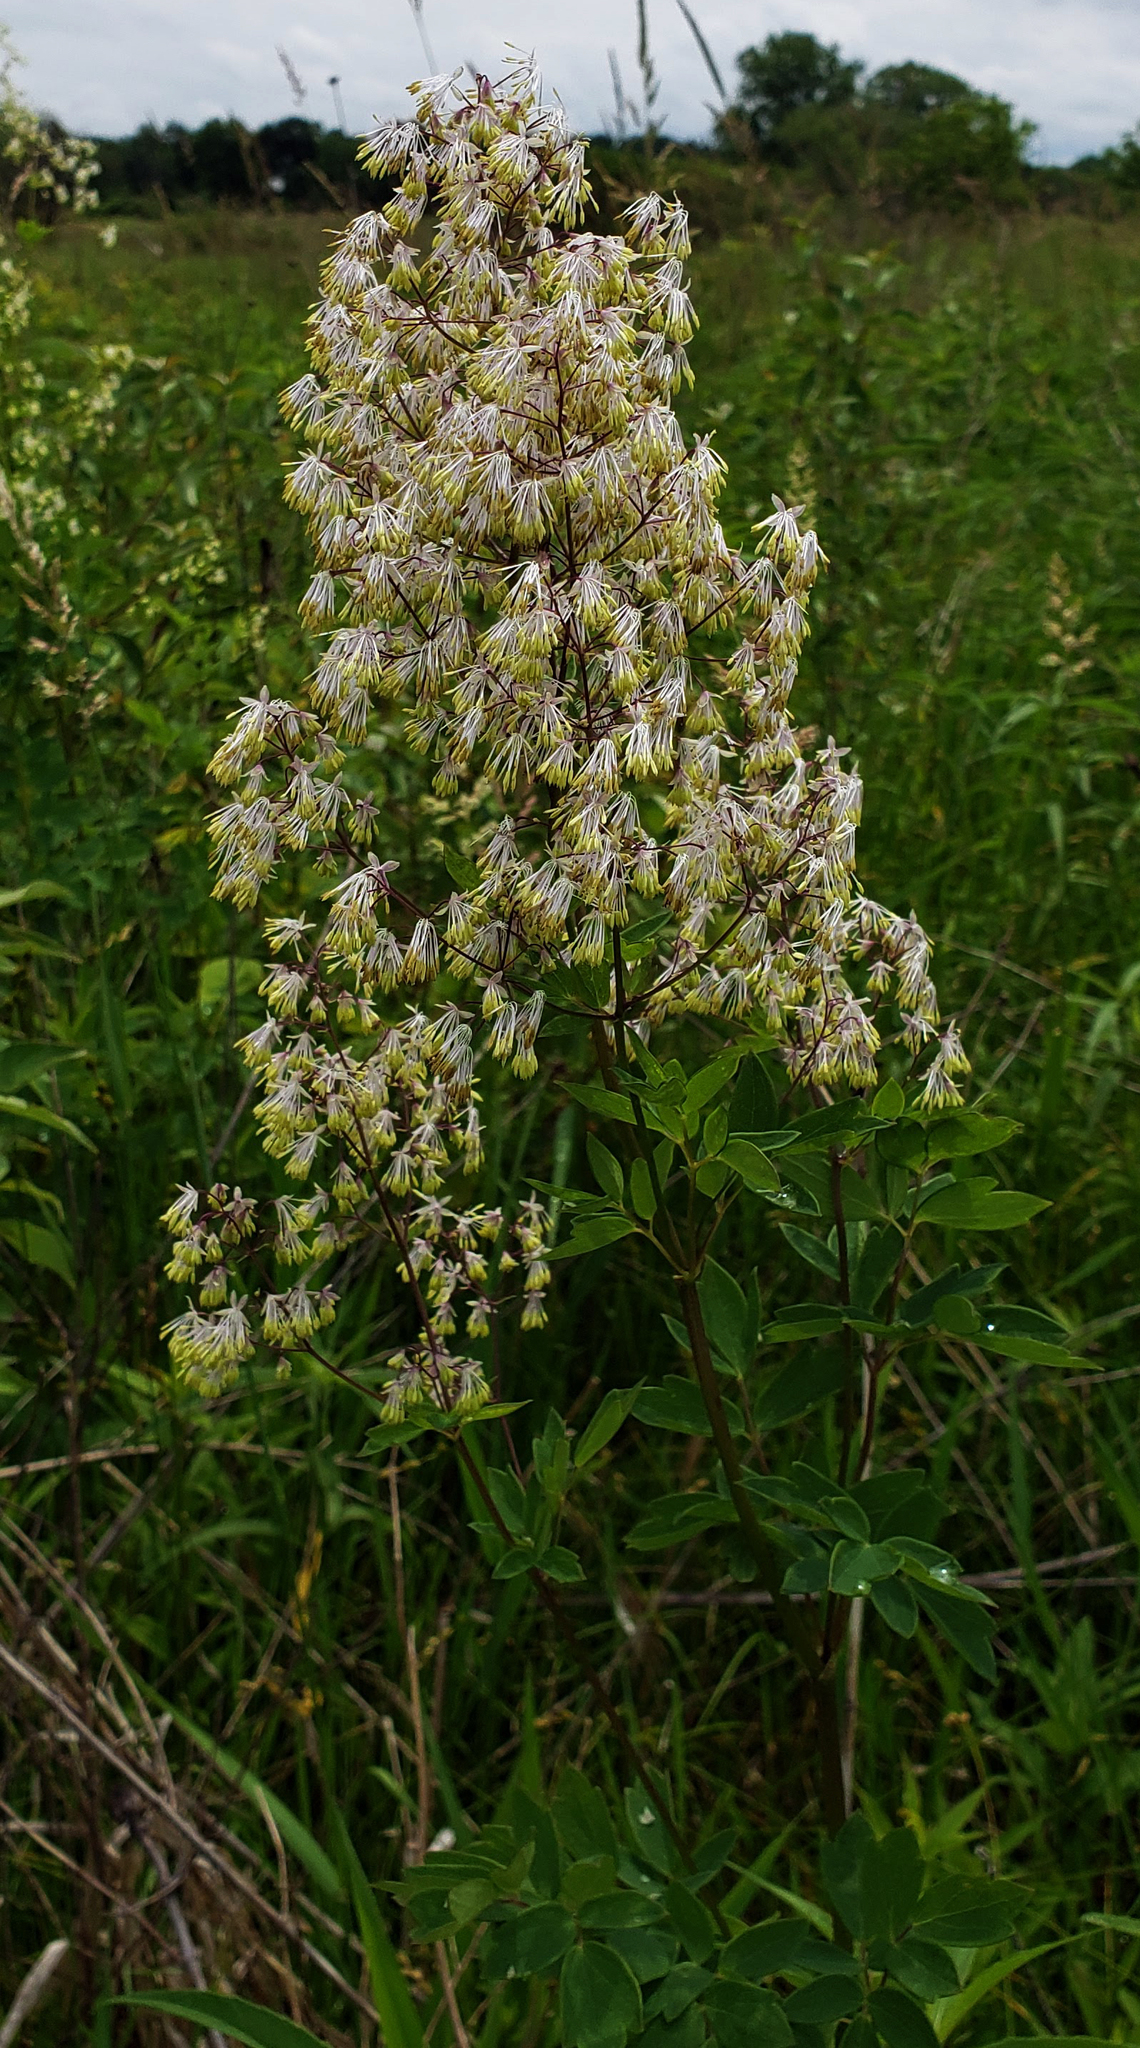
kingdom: Plantae
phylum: Tracheophyta
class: Magnoliopsida
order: Ranunculales
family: Ranunculaceae
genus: Thalictrum
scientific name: Thalictrum dasycarpum
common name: Purple meadow-rue
